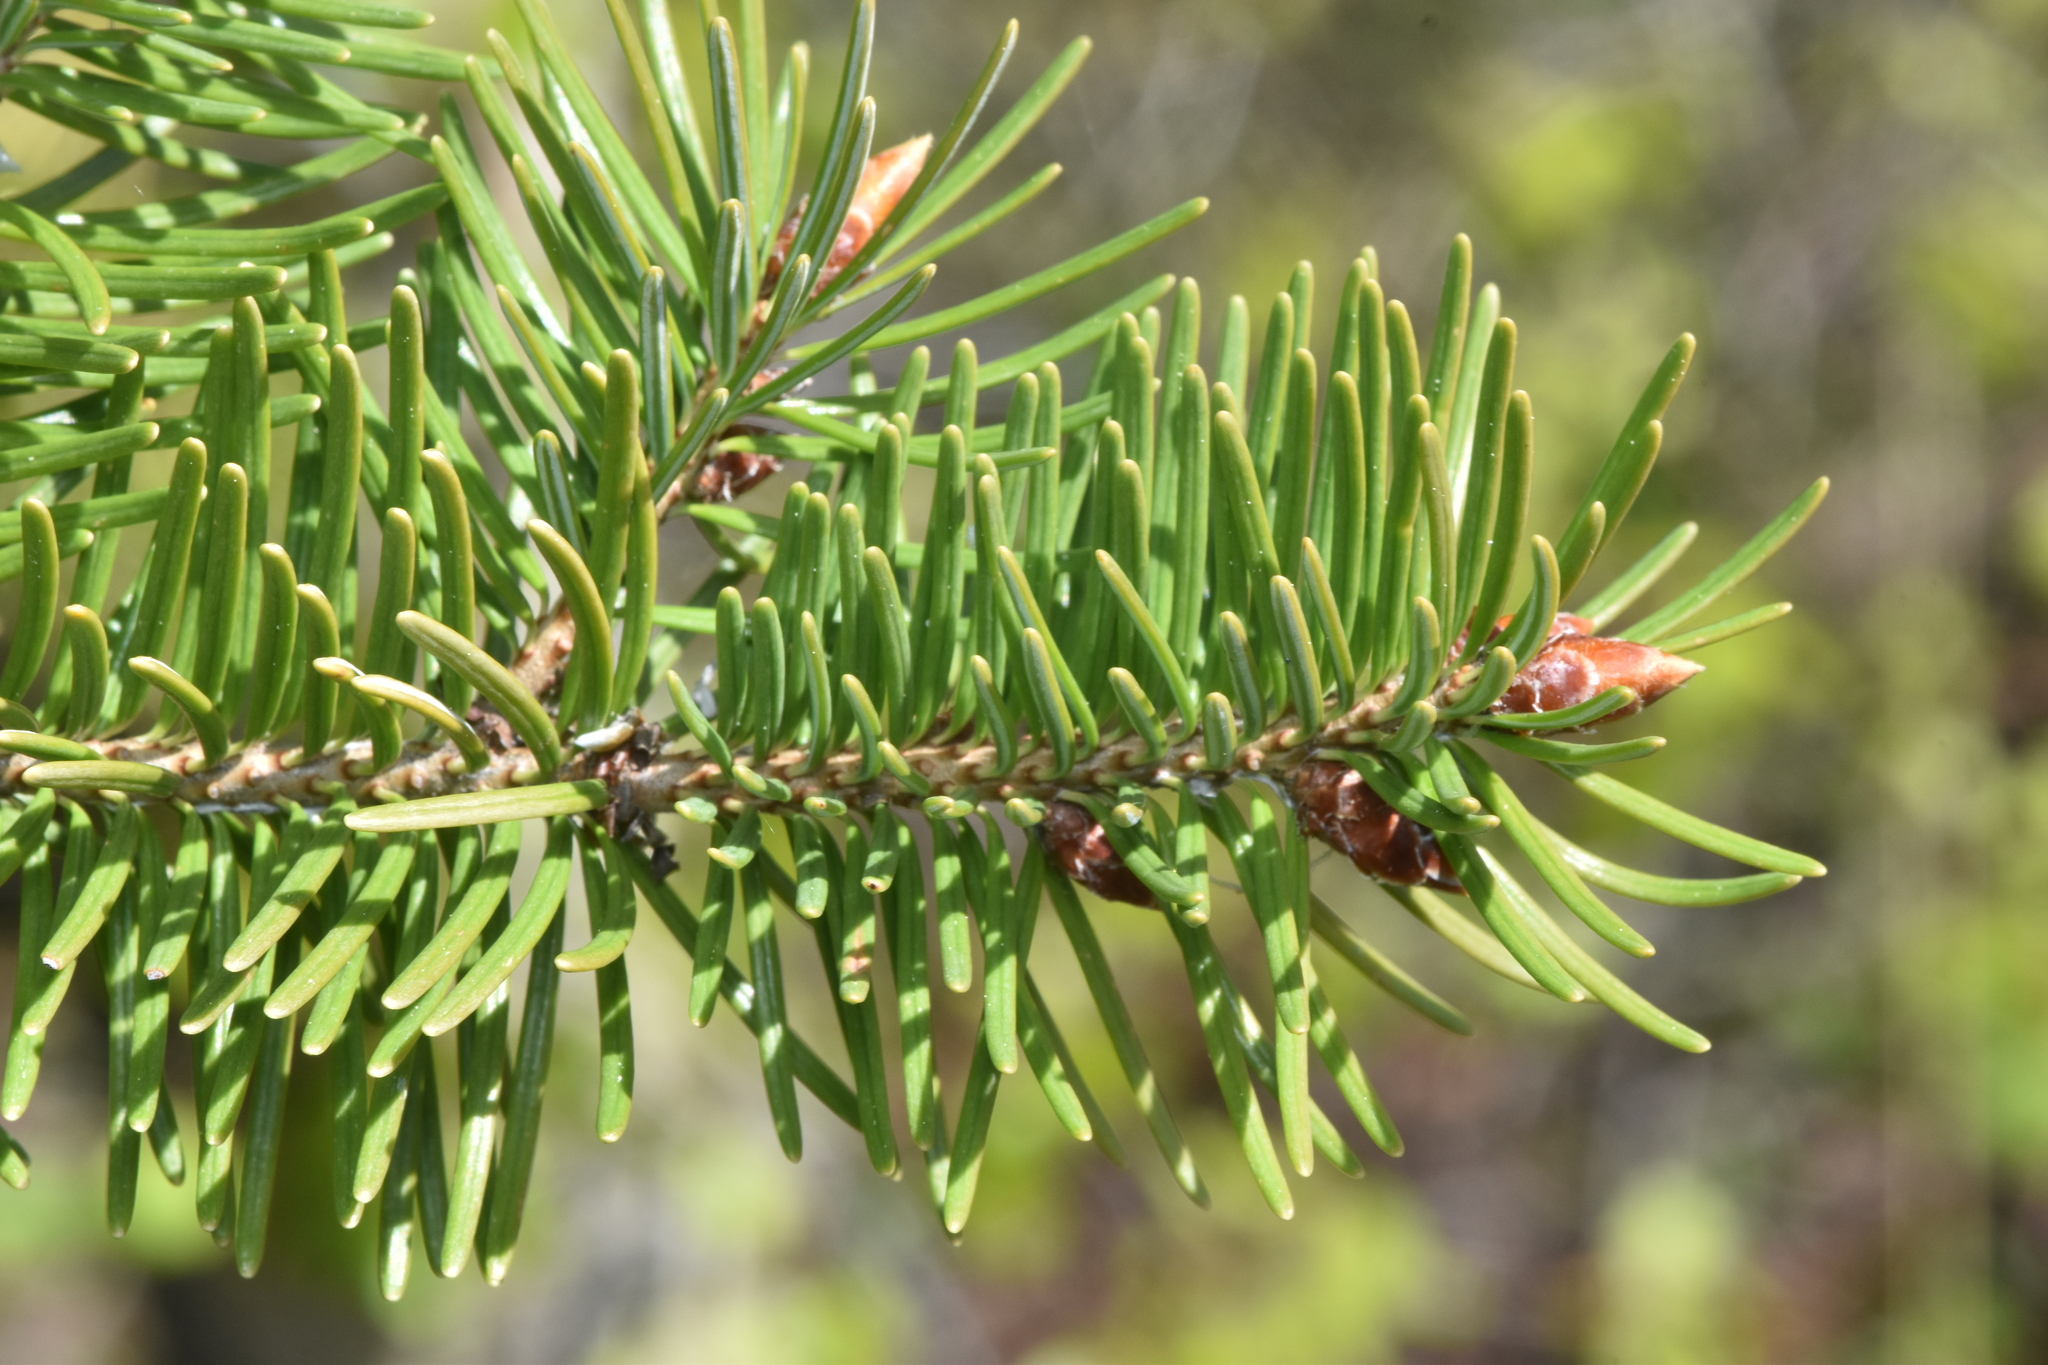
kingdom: Plantae
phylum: Tracheophyta
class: Pinopsida
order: Pinales
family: Pinaceae
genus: Pseudotsuga
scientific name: Pseudotsuga menziesii
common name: Douglas fir
